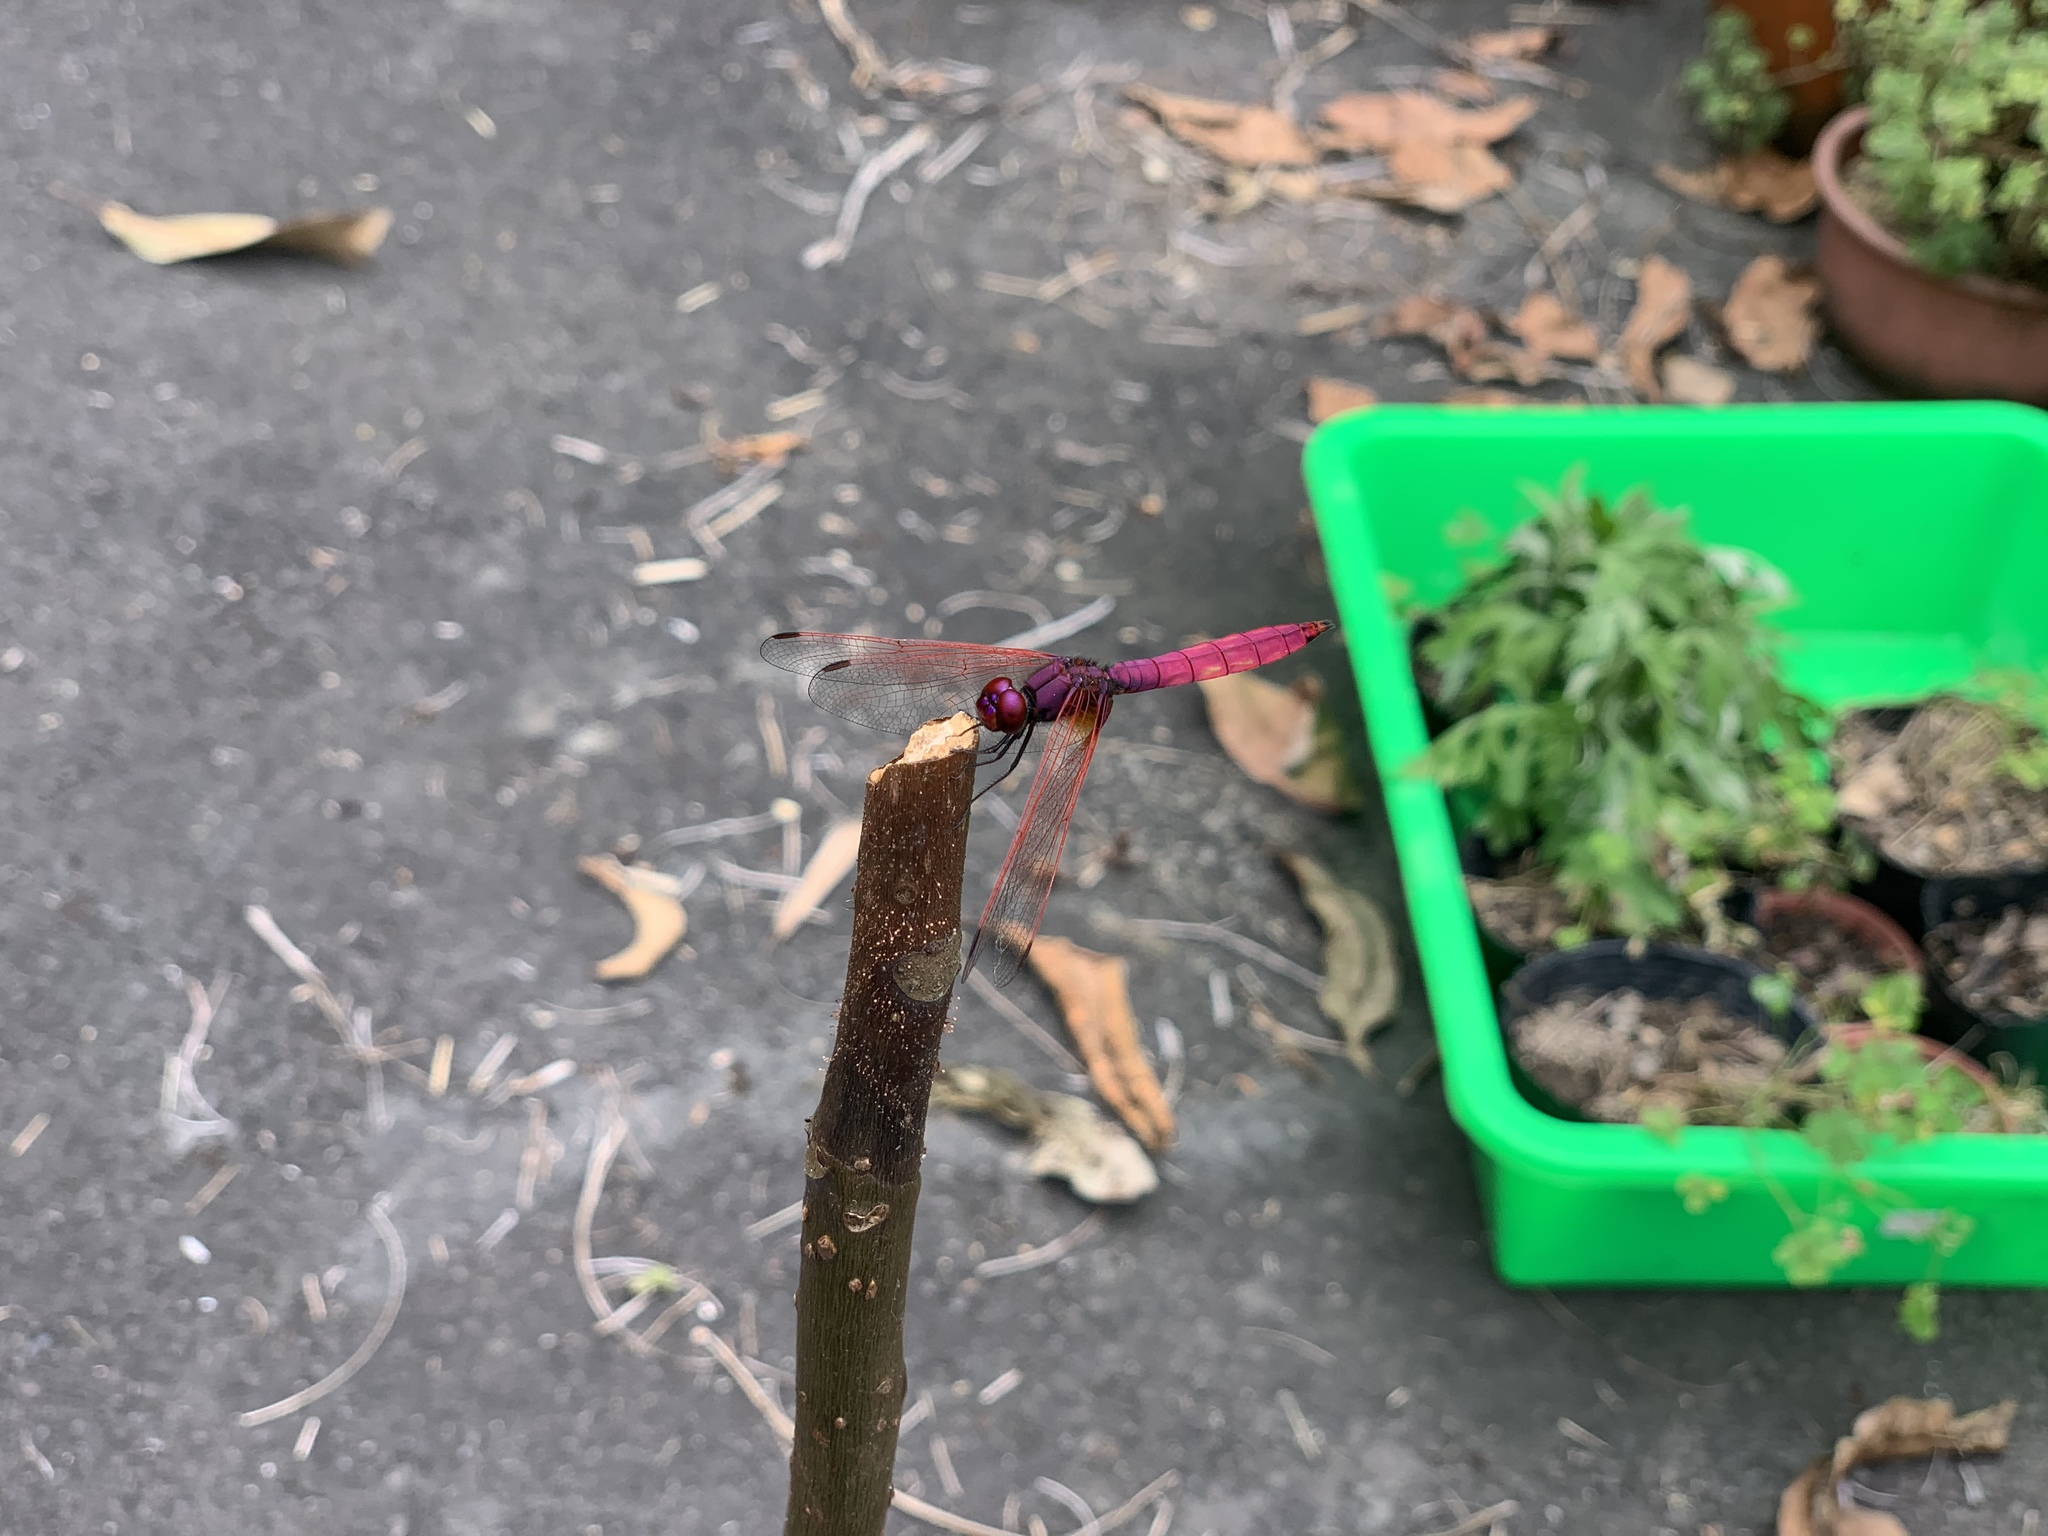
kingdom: Animalia
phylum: Arthropoda
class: Insecta
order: Odonata
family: Libellulidae
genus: Trithemis
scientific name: Trithemis aurora
